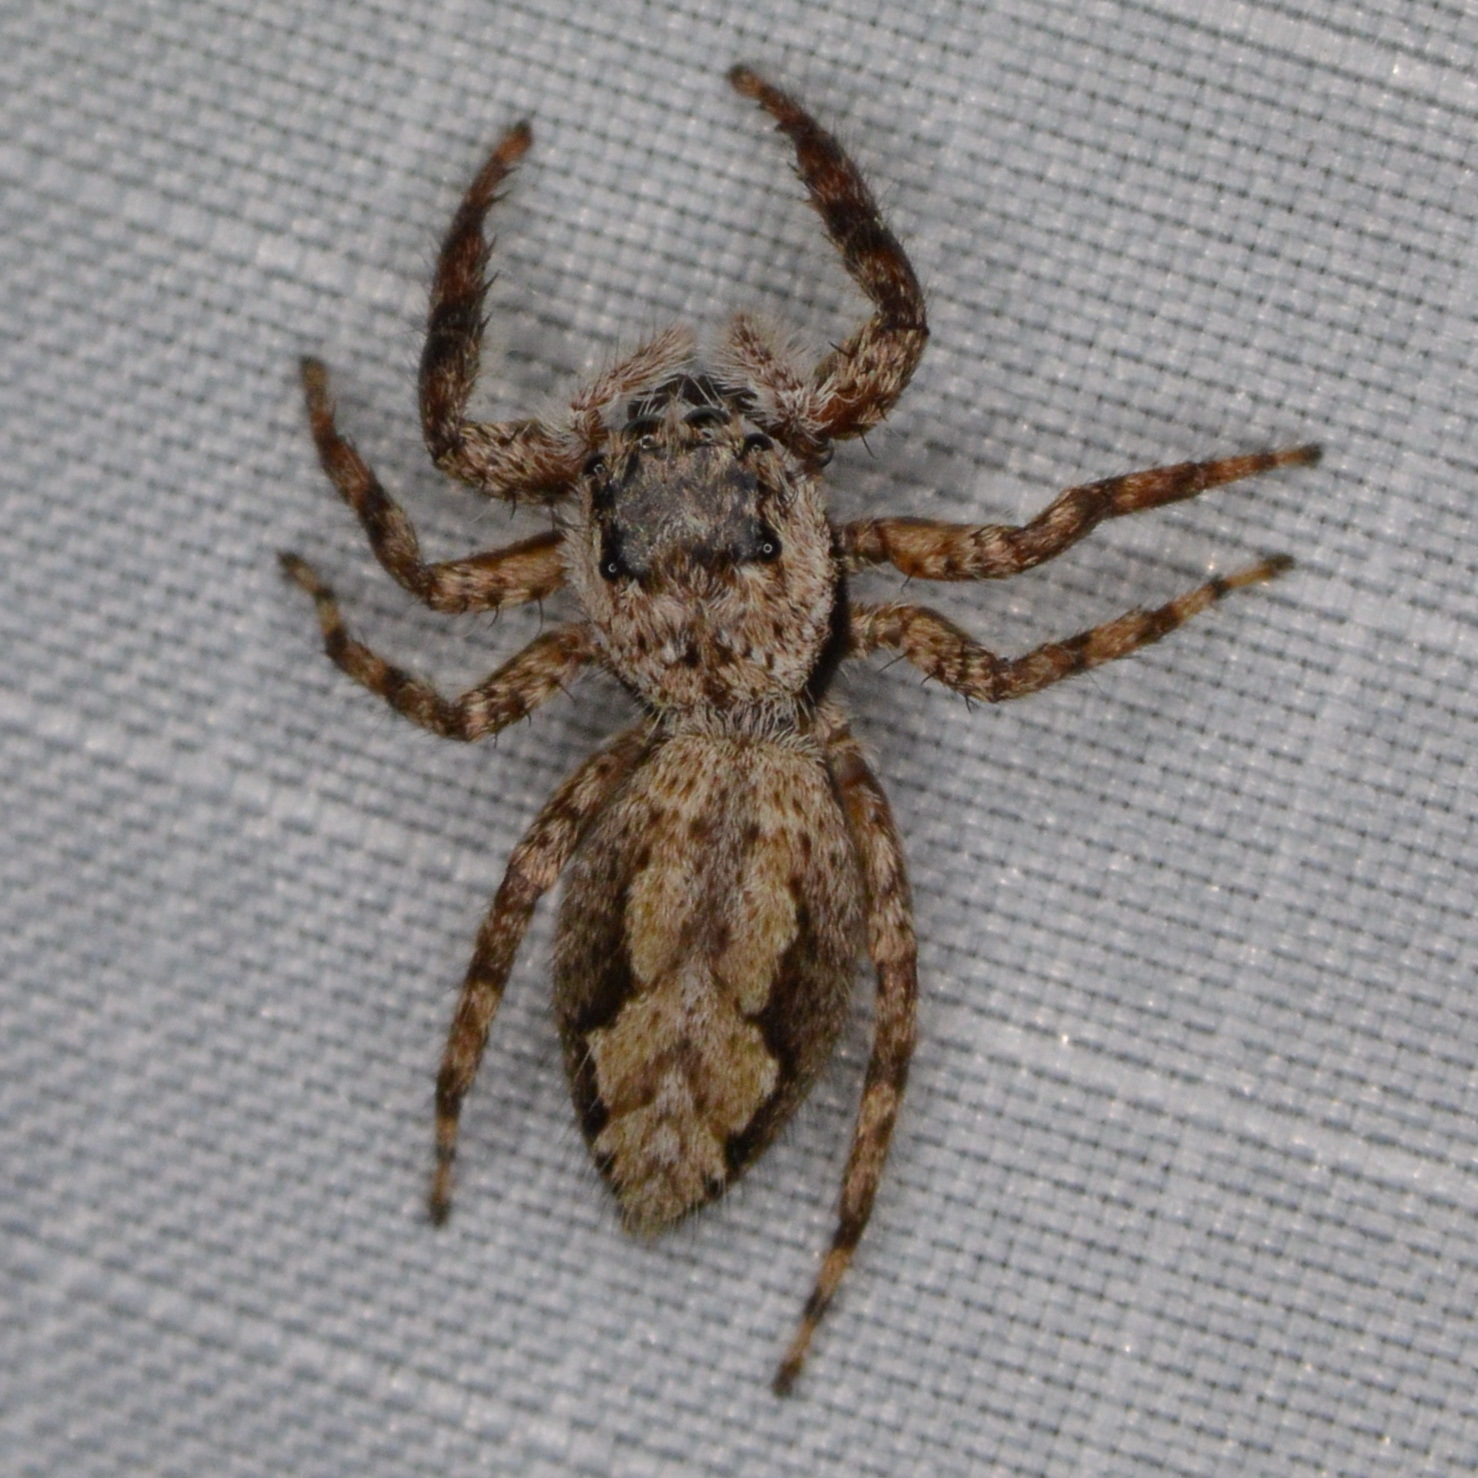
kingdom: Animalia
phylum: Arthropoda
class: Arachnida
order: Araneae
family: Salticidae
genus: Platycryptus
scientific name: Platycryptus undatus
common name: Tan jumping spider
